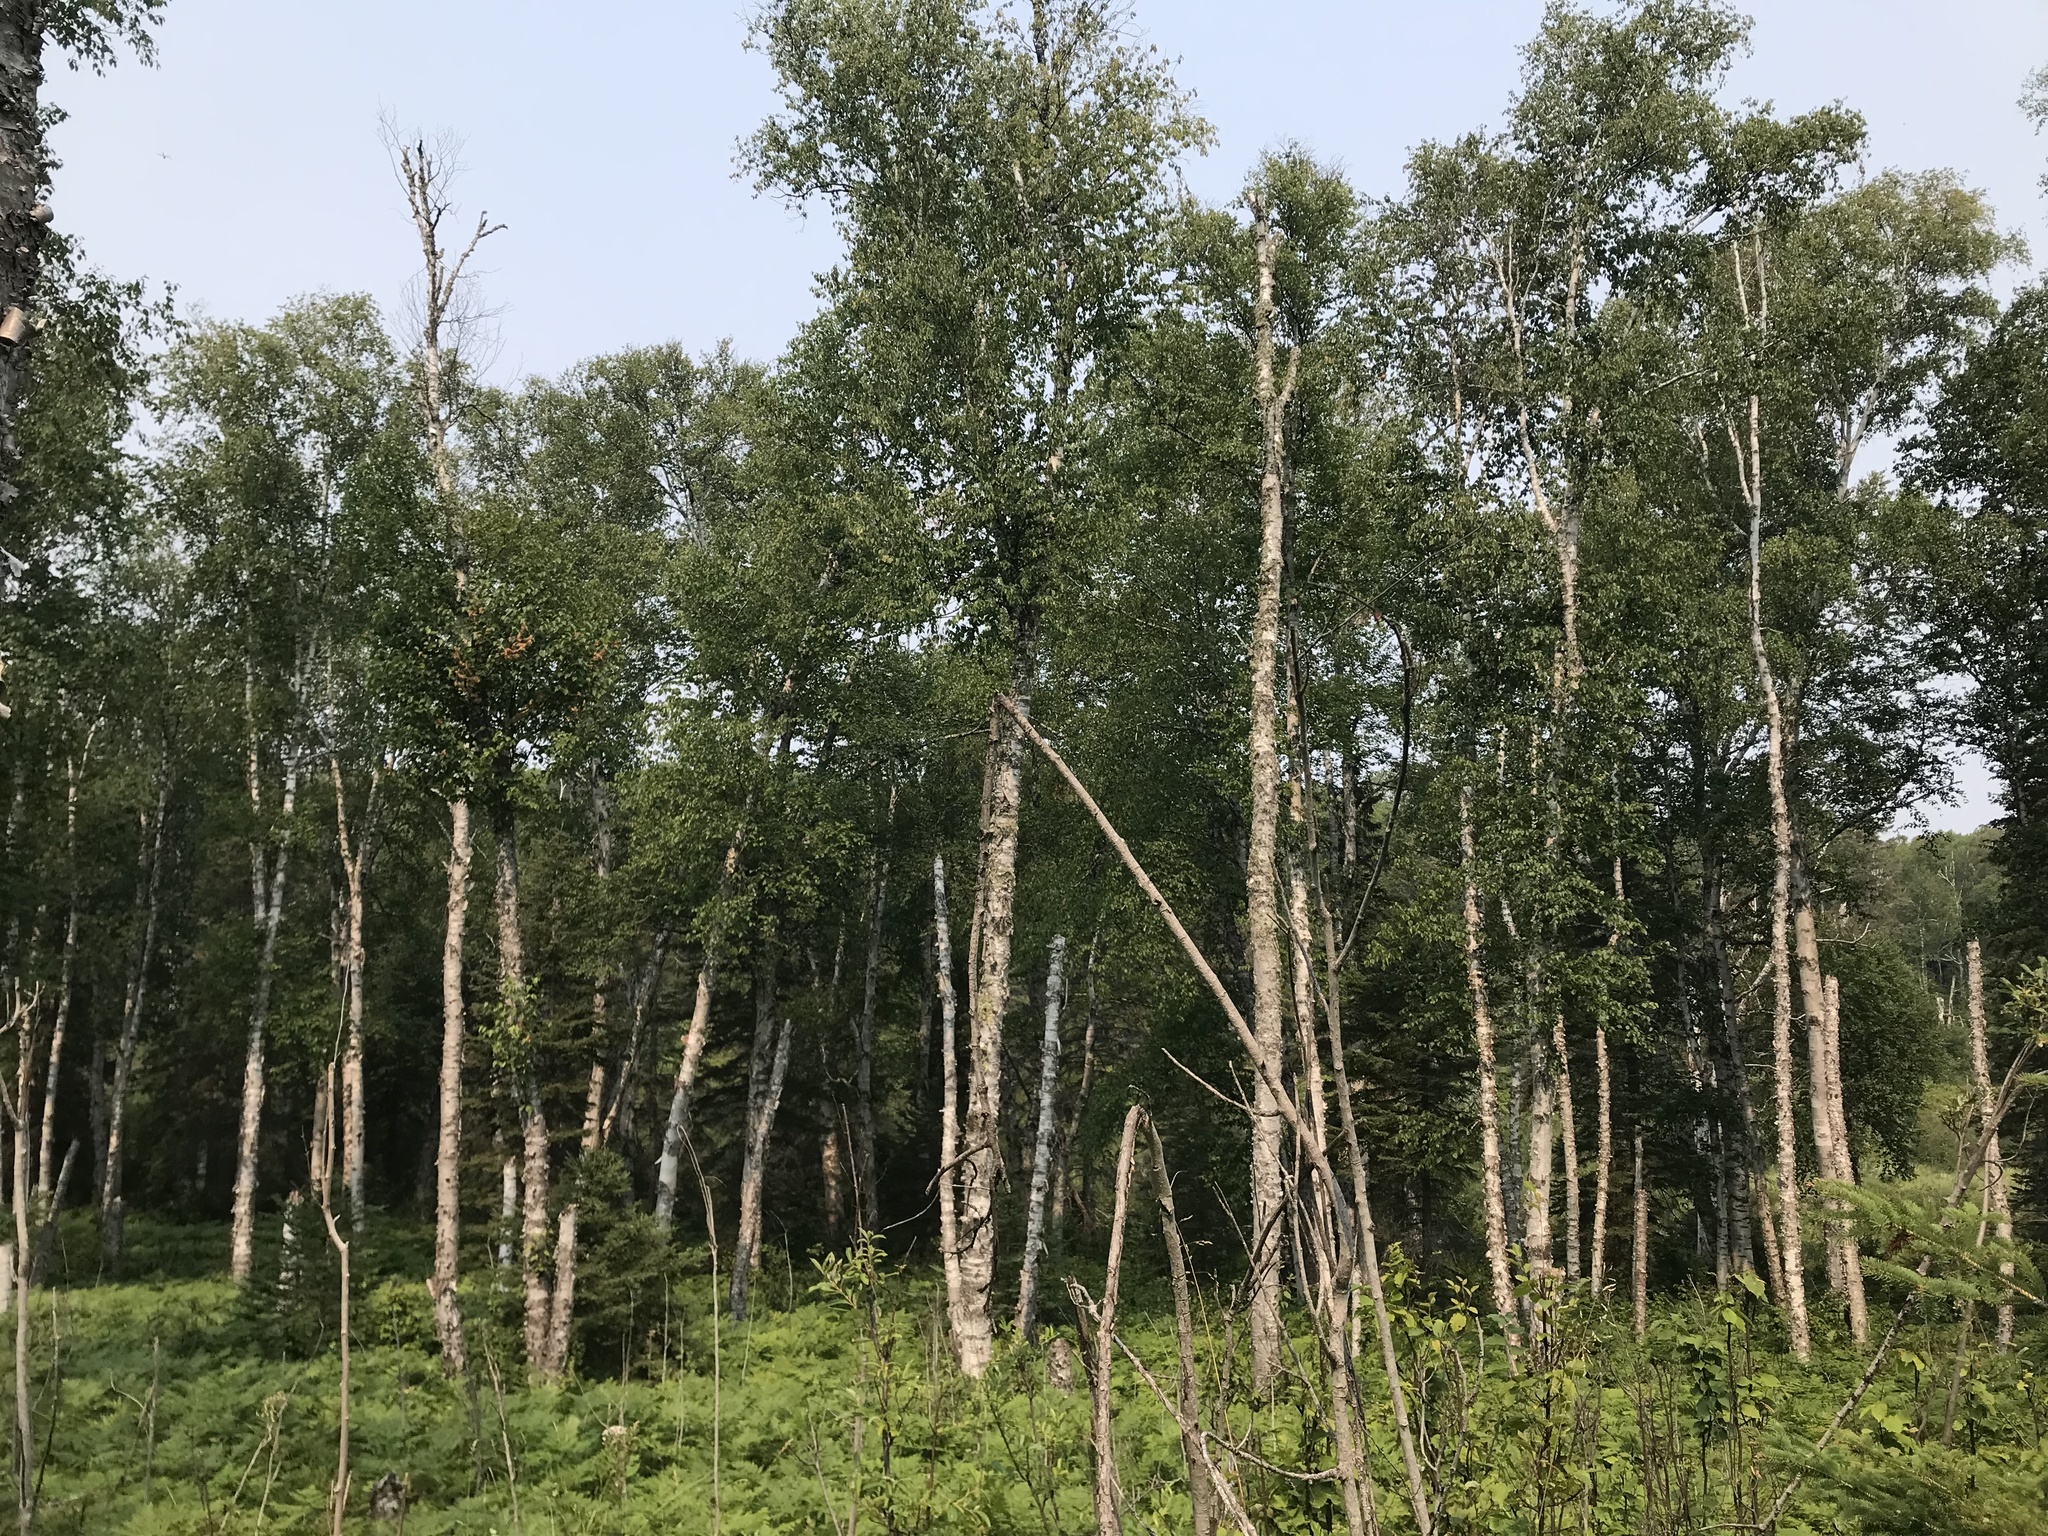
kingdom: Plantae
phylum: Tracheophyta
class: Magnoliopsida
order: Fagales
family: Betulaceae
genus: Betula
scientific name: Betula papyrifera
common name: Paper birch
